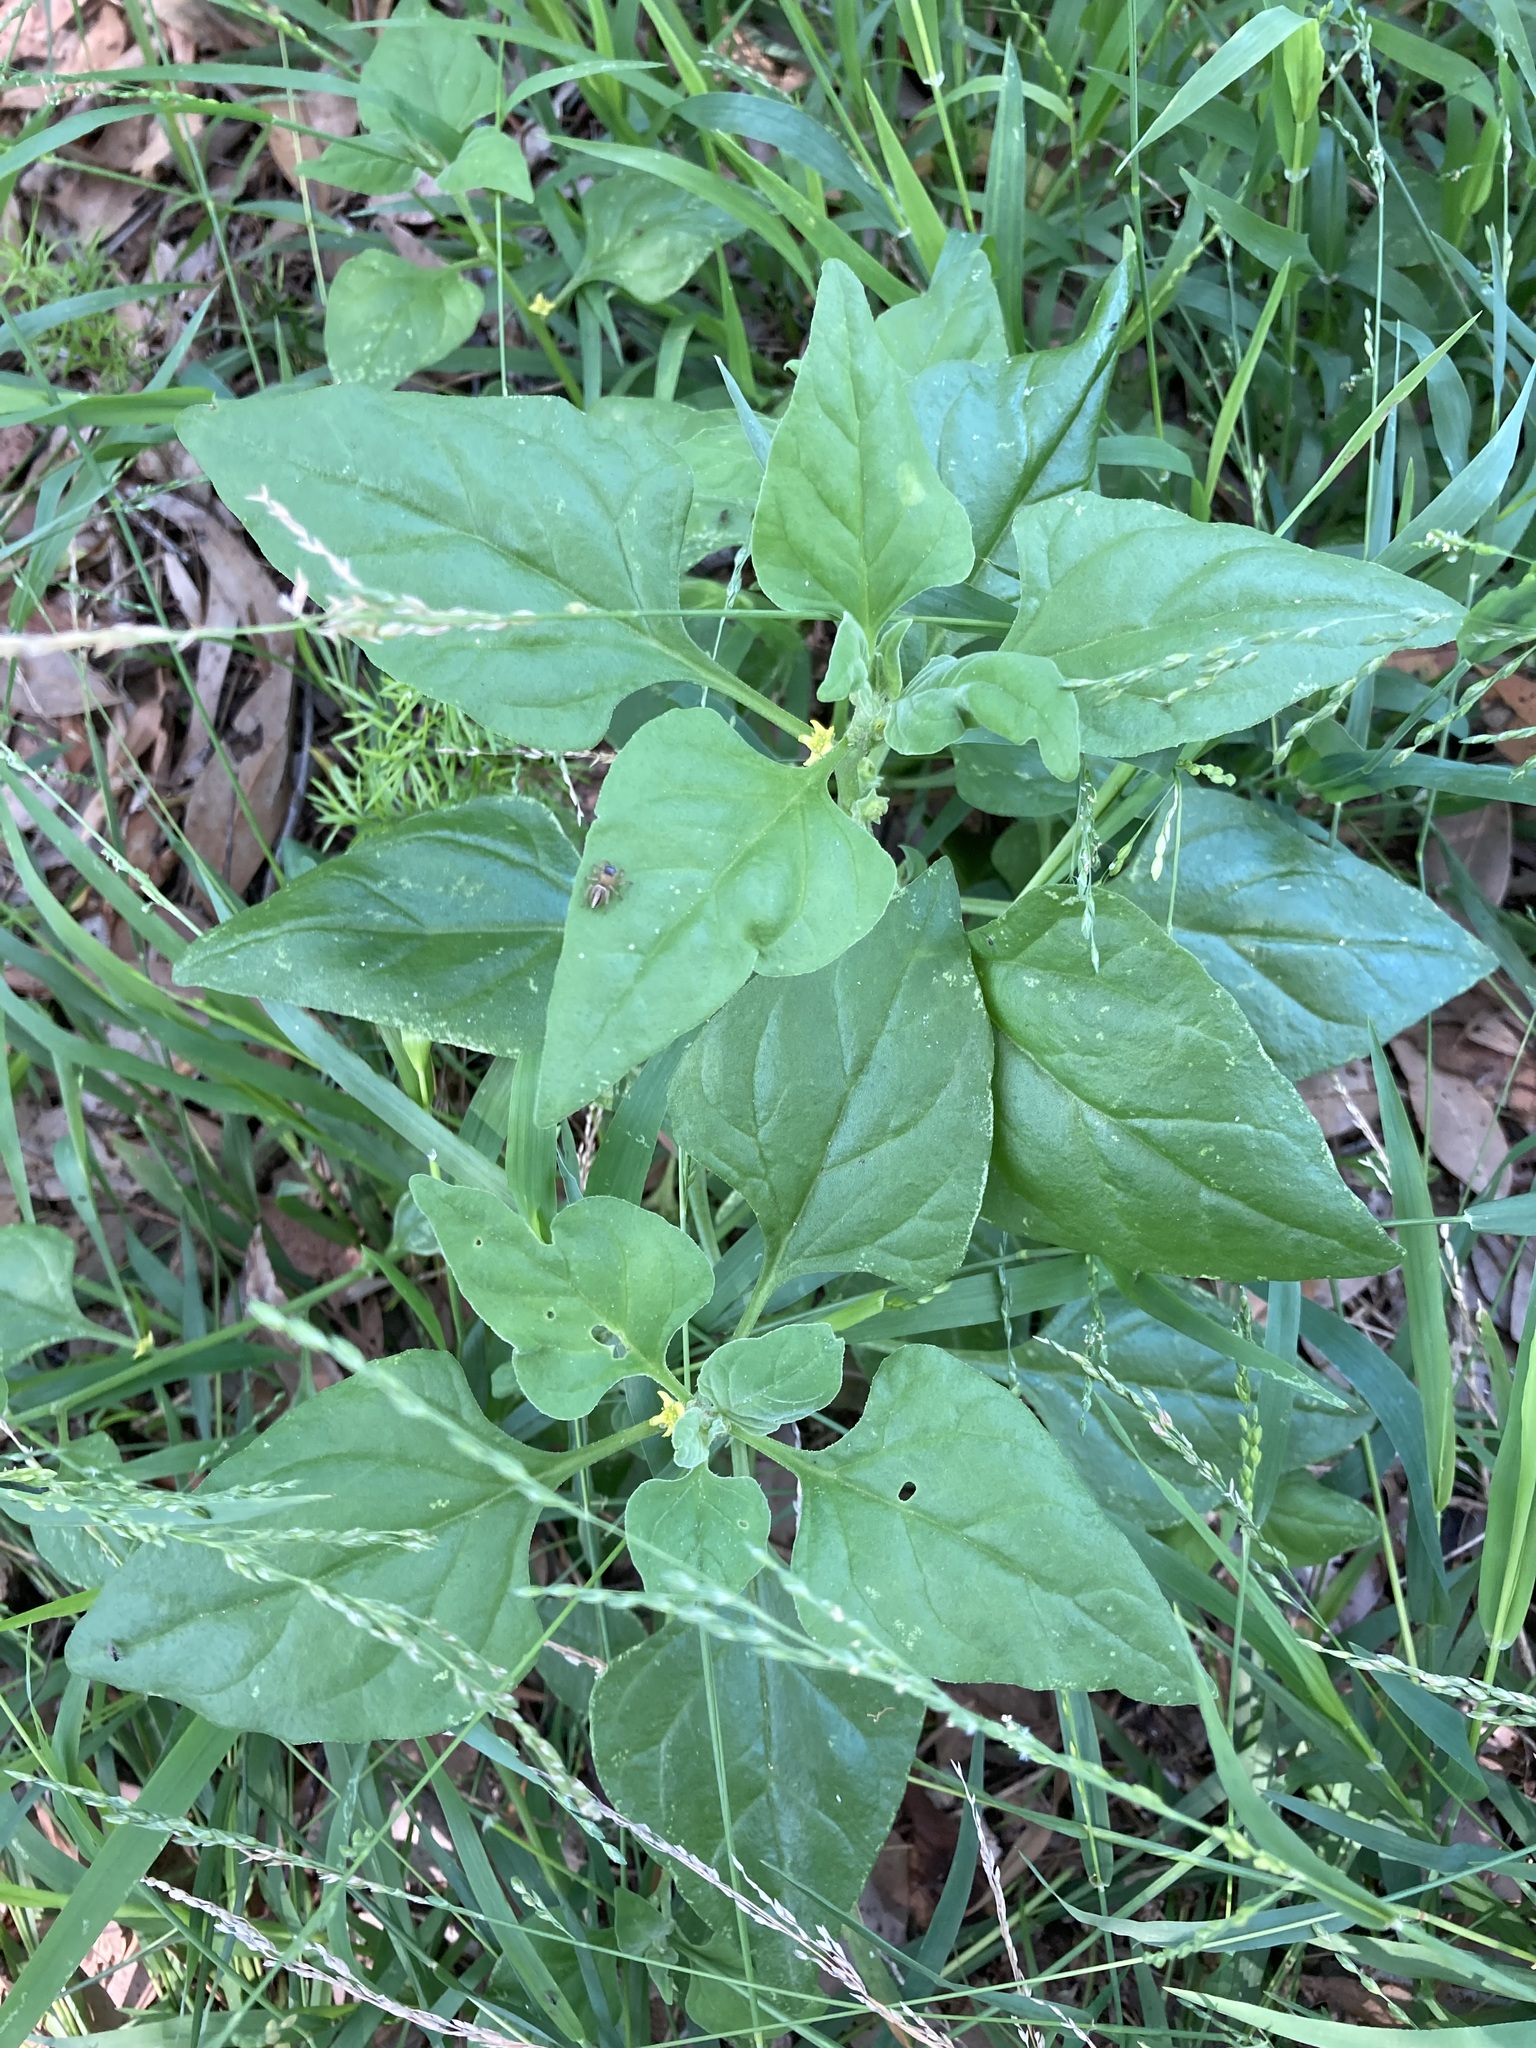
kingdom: Plantae
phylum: Tracheophyta
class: Magnoliopsida
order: Caryophyllales
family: Aizoaceae
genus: Tetragonia
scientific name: Tetragonia tetragonoides
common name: New zealand-spinach
